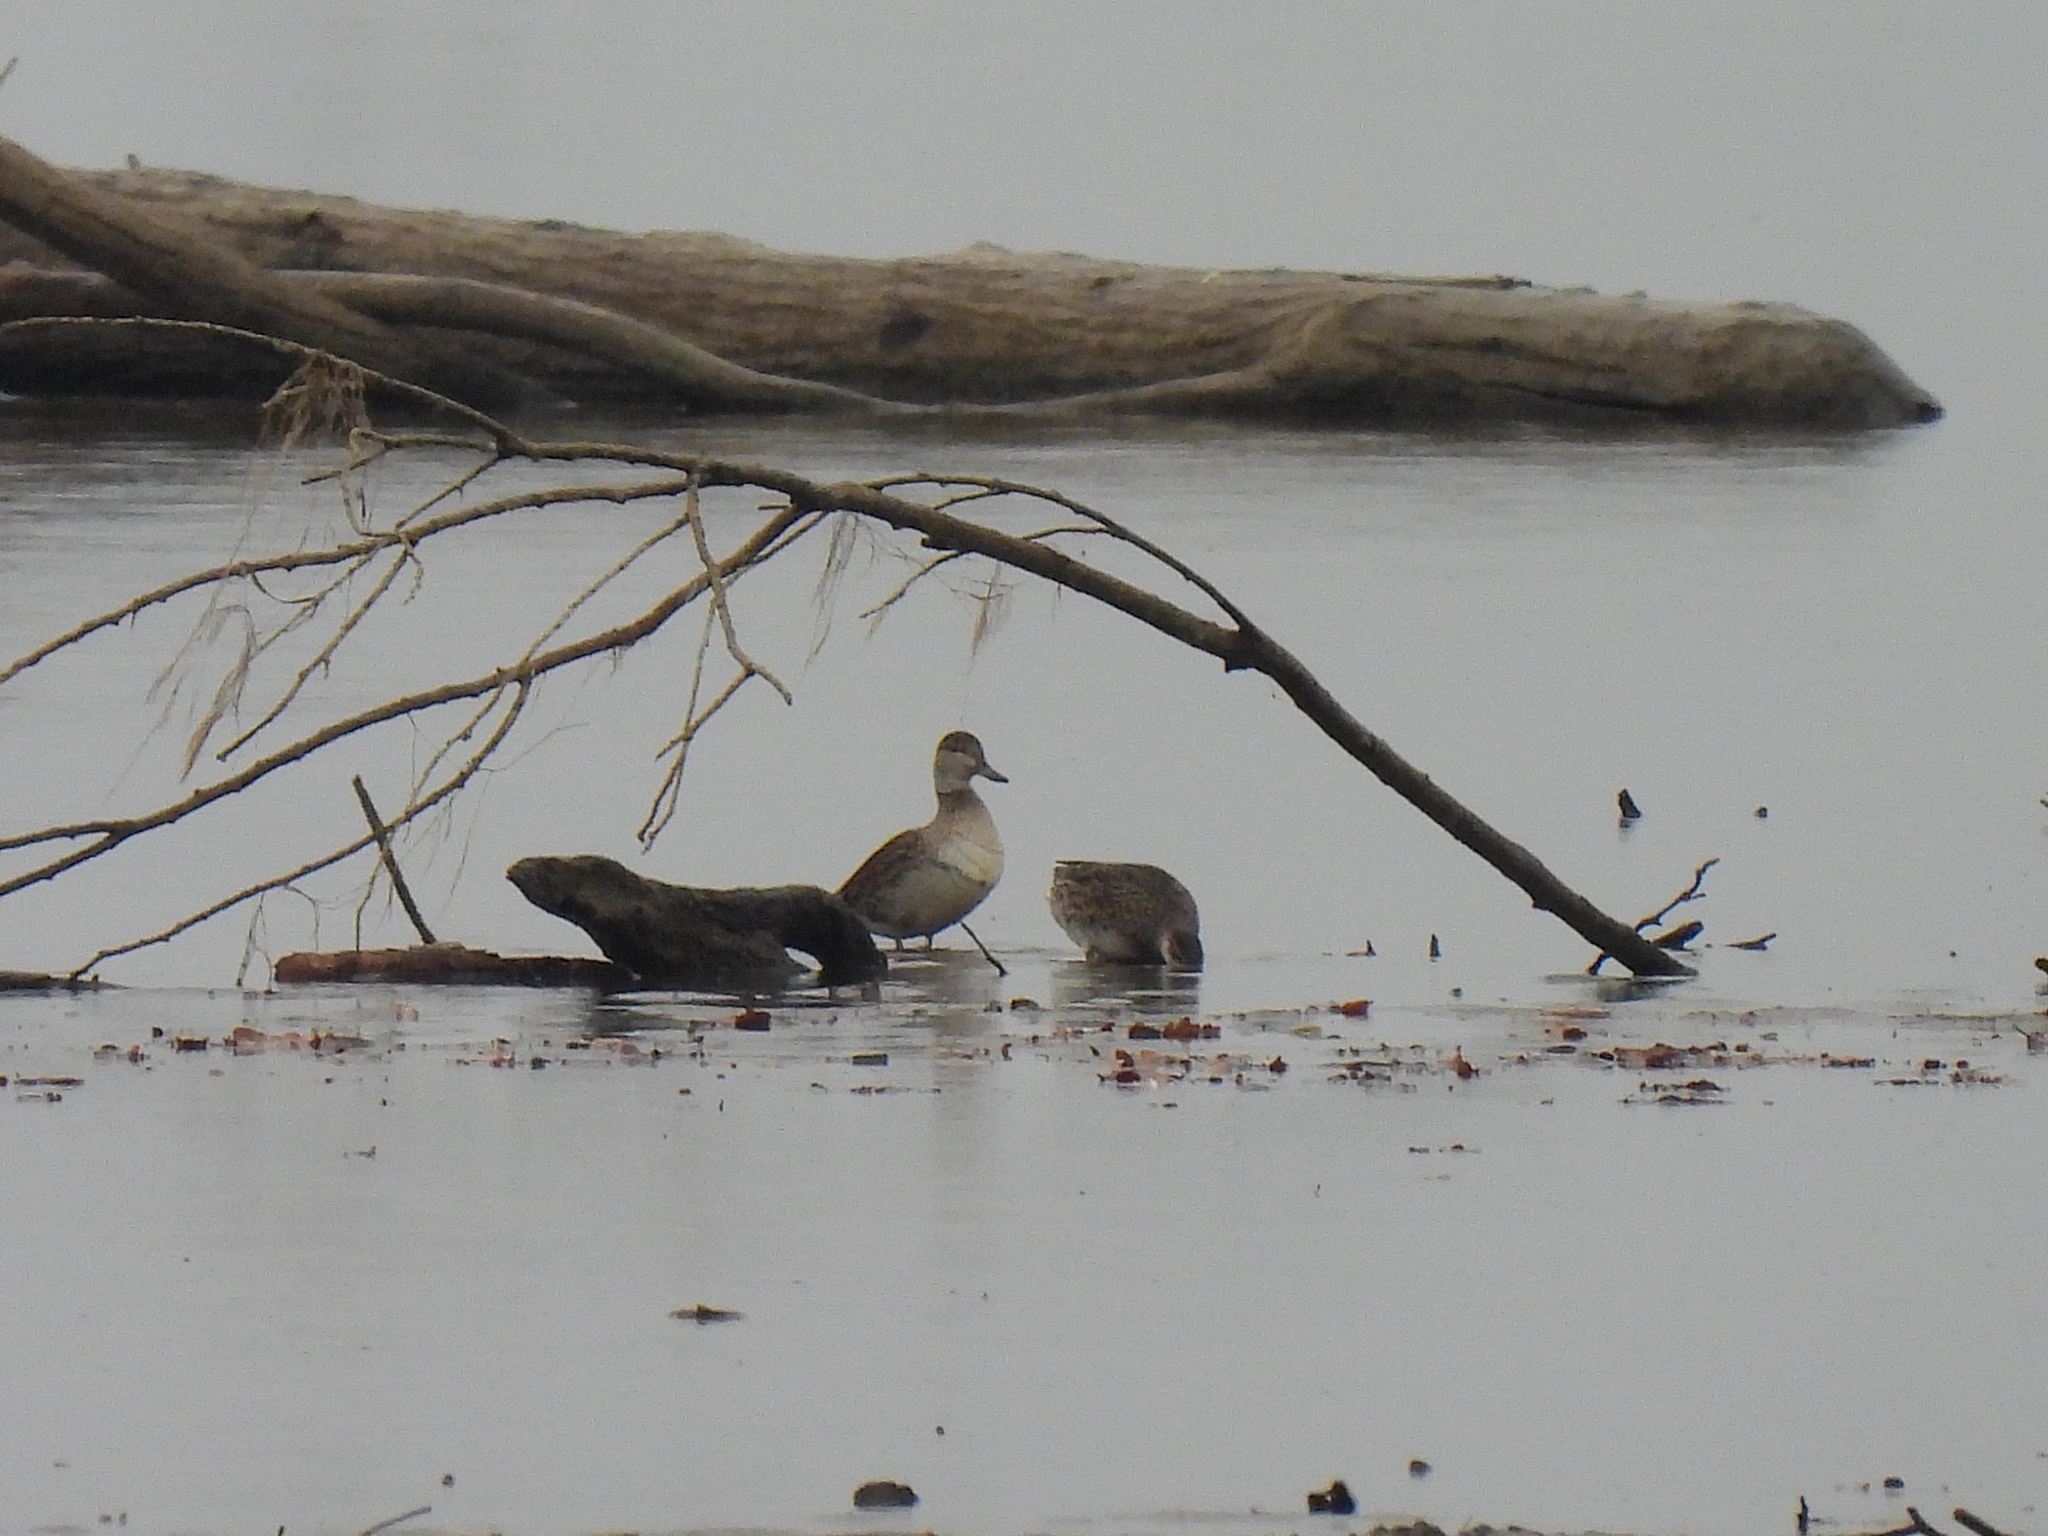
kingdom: Animalia
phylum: Chordata
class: Aves
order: Anseriformes
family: Anatidae
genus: Anas
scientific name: Anas crecca
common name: Eurasian teal
